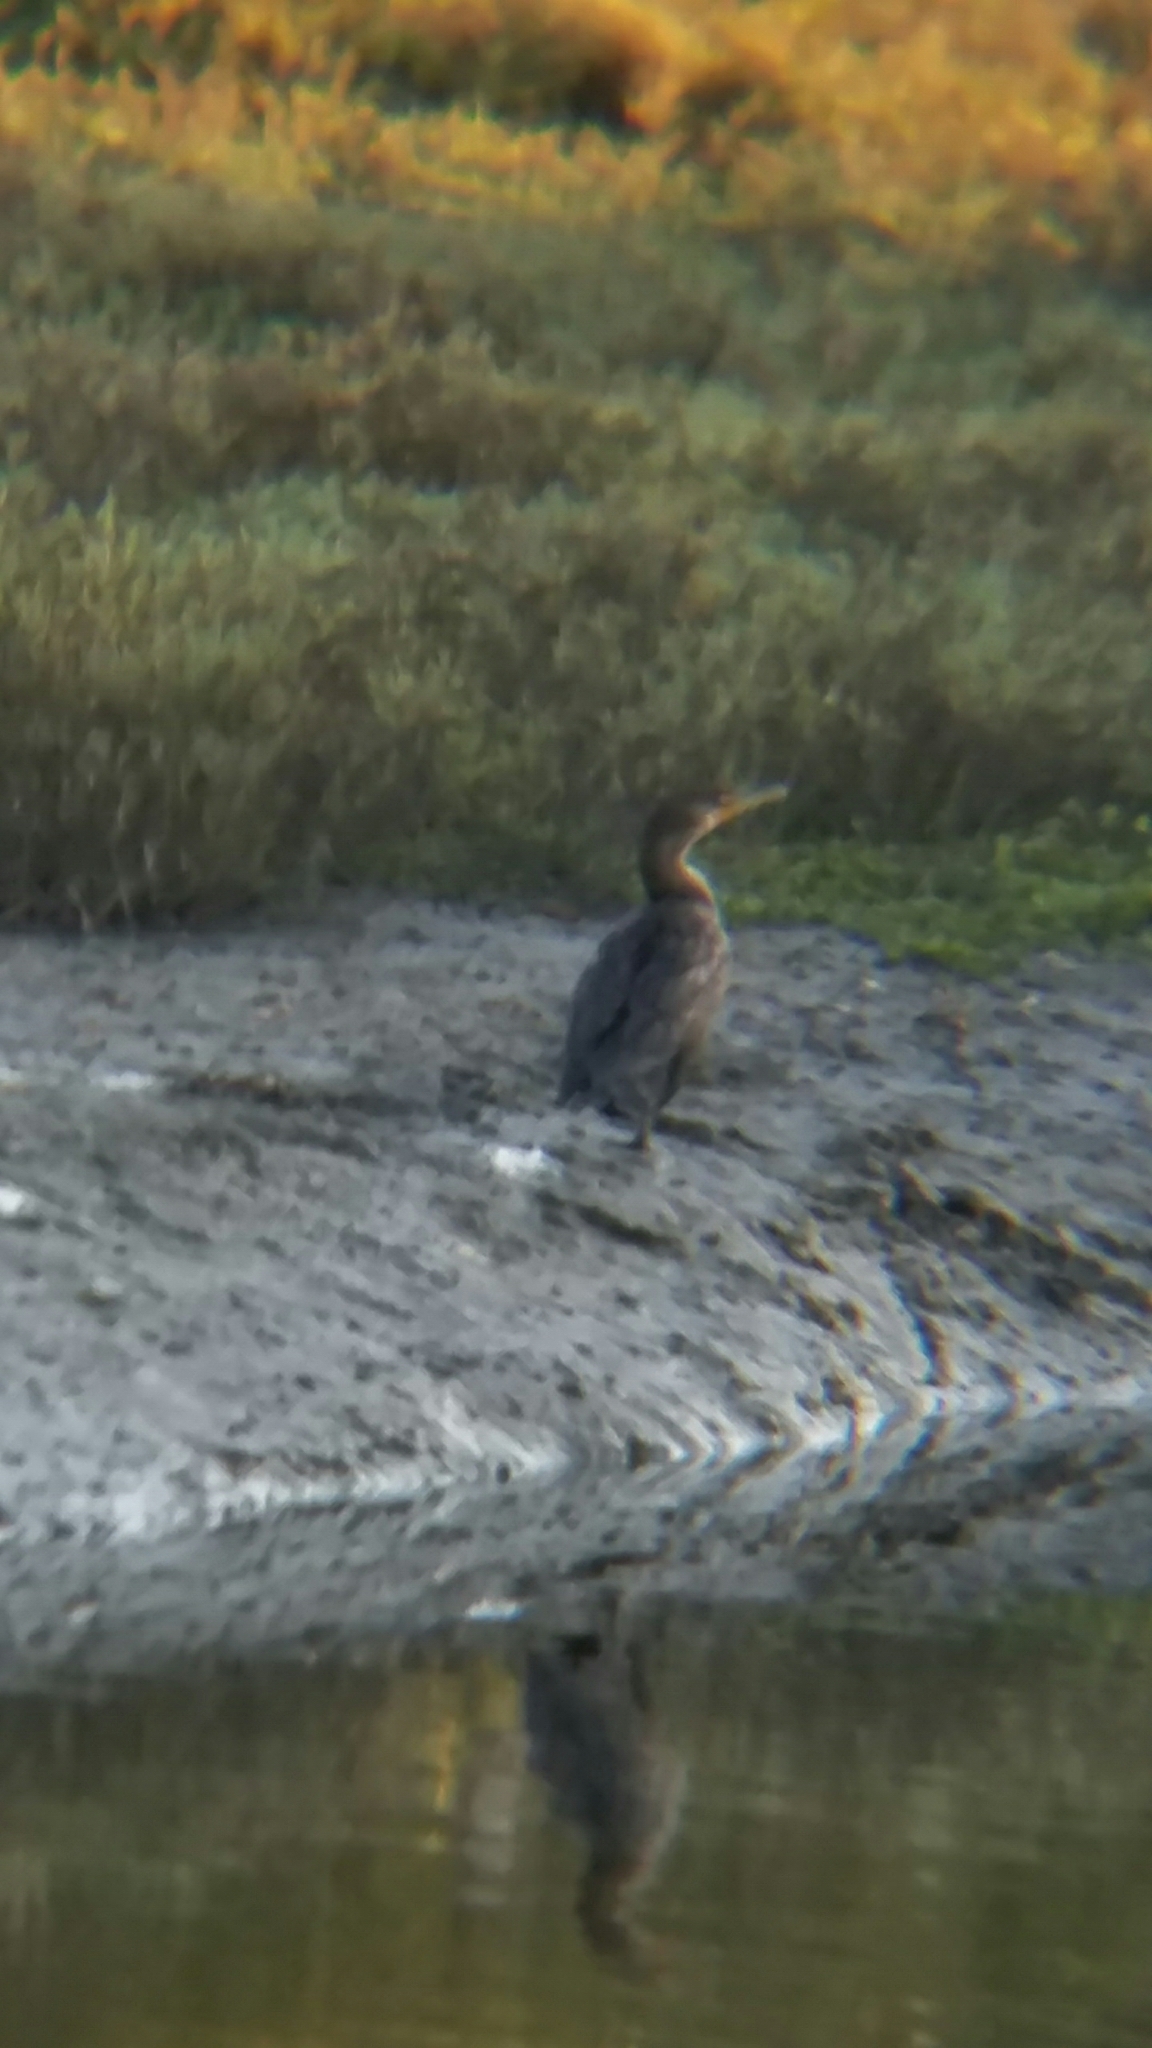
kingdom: Animalia
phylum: Chordata
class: Aves
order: Suliformes
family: Phalacrocoracidae
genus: Phalacrocorax
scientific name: Phalacrocorax auritus
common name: Double-crested cormorant
